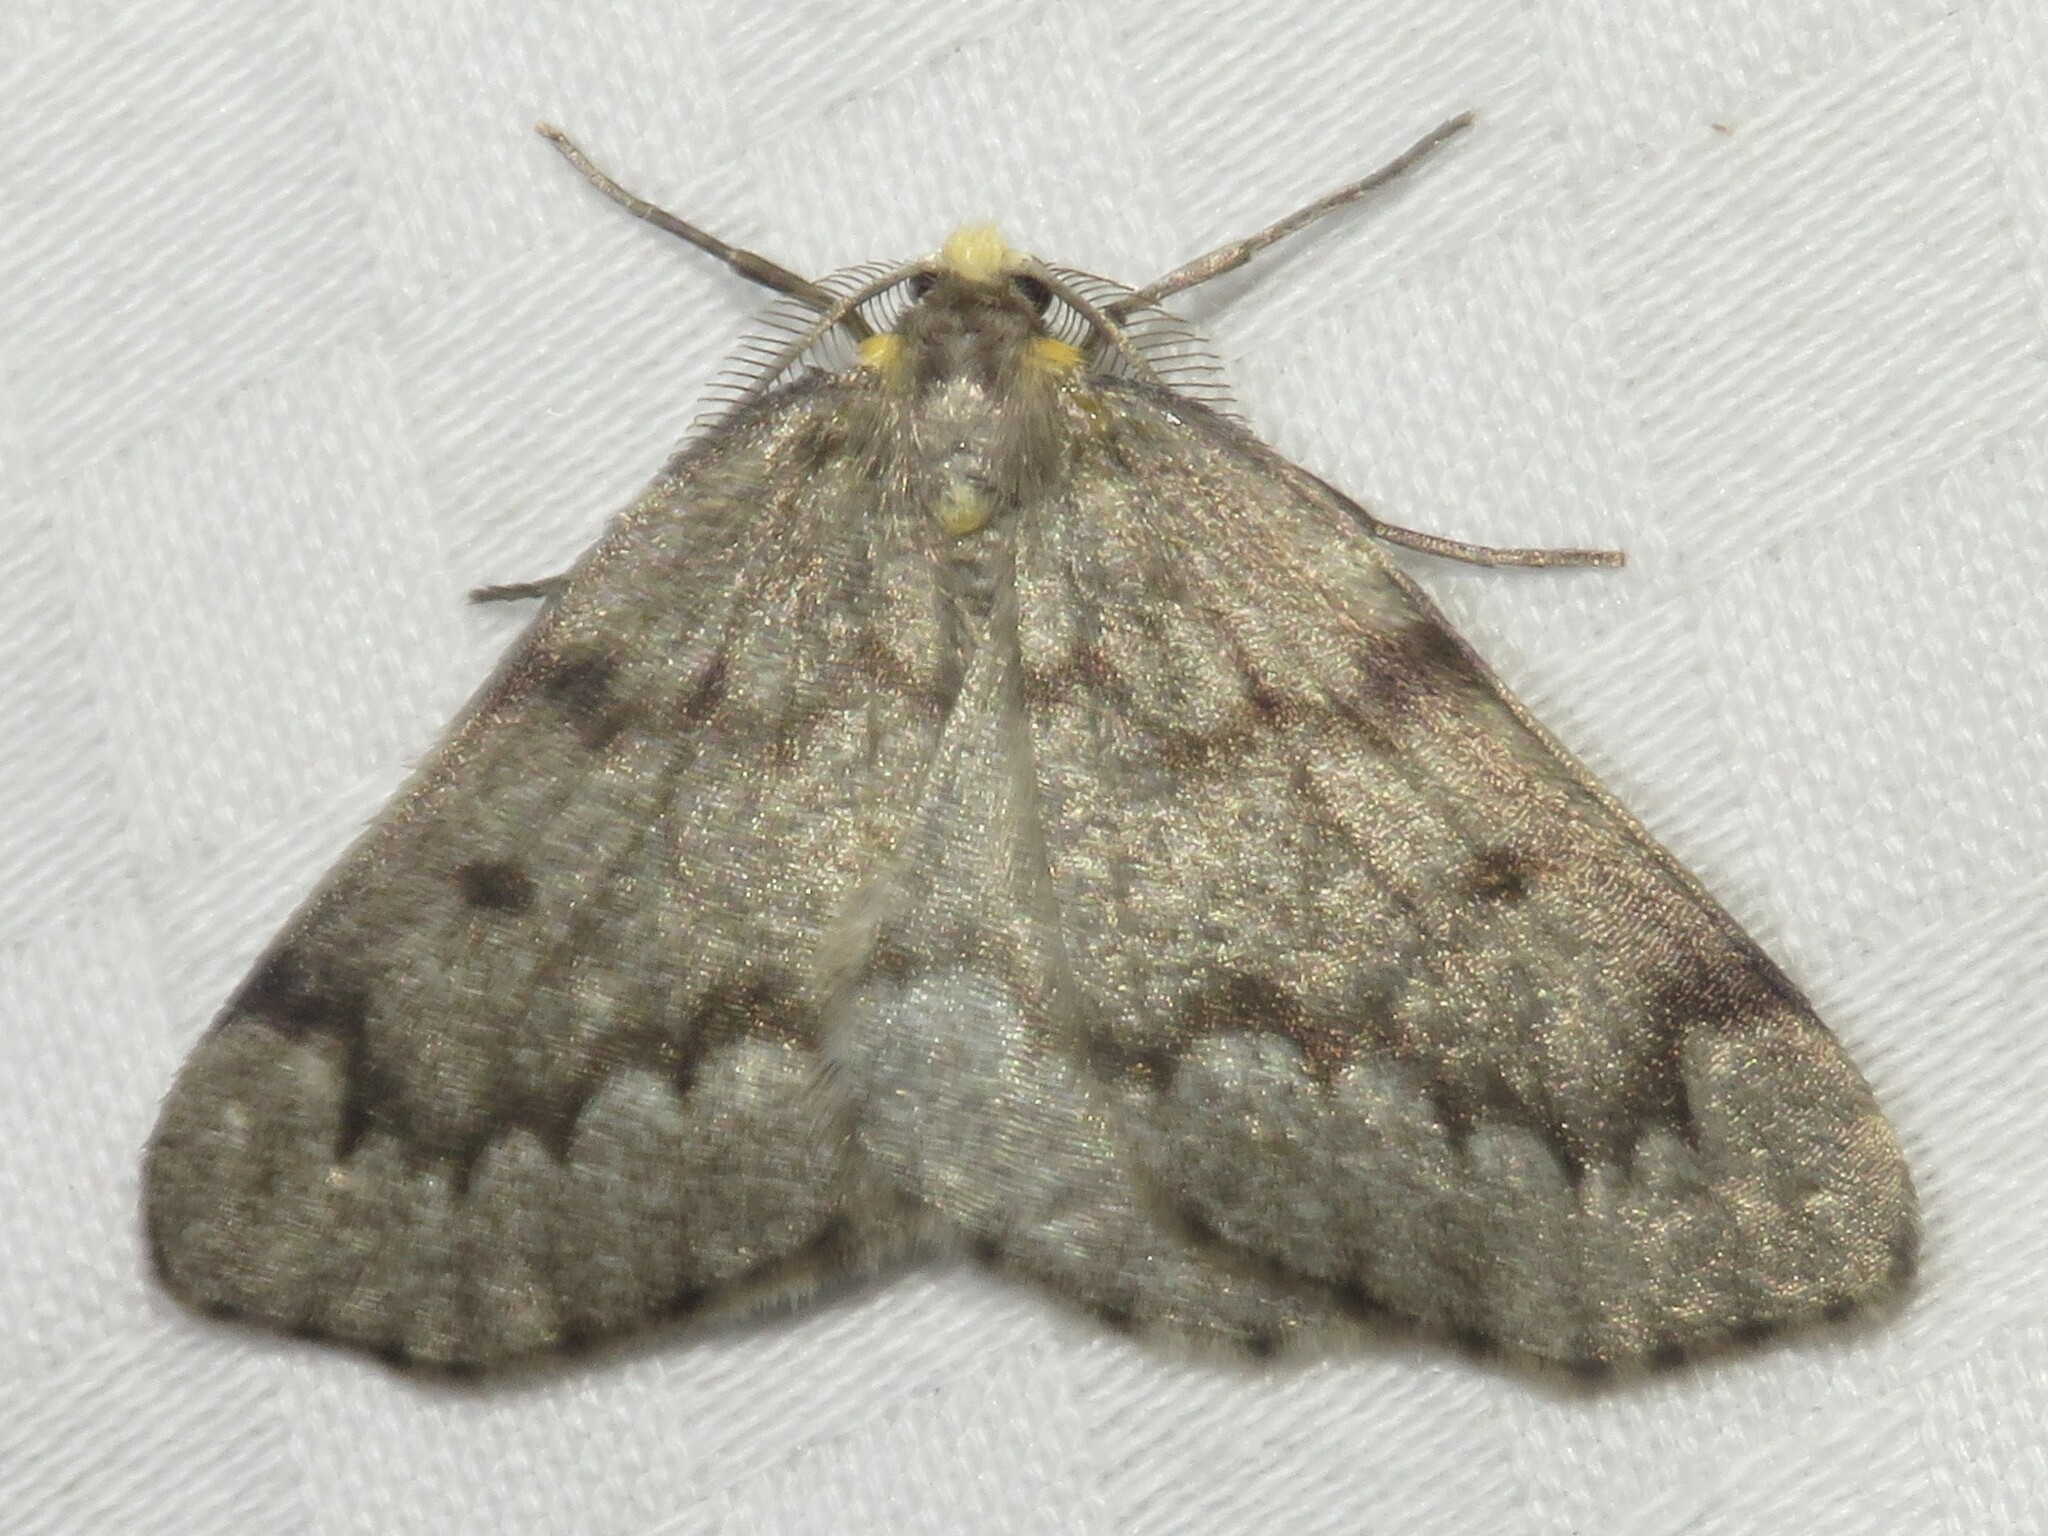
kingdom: Animalia
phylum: Arthropoda
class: Insecta
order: Lepidoptera
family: Geometridae
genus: Nepytia
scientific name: Nepytia canosaria
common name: False hemlock looper
